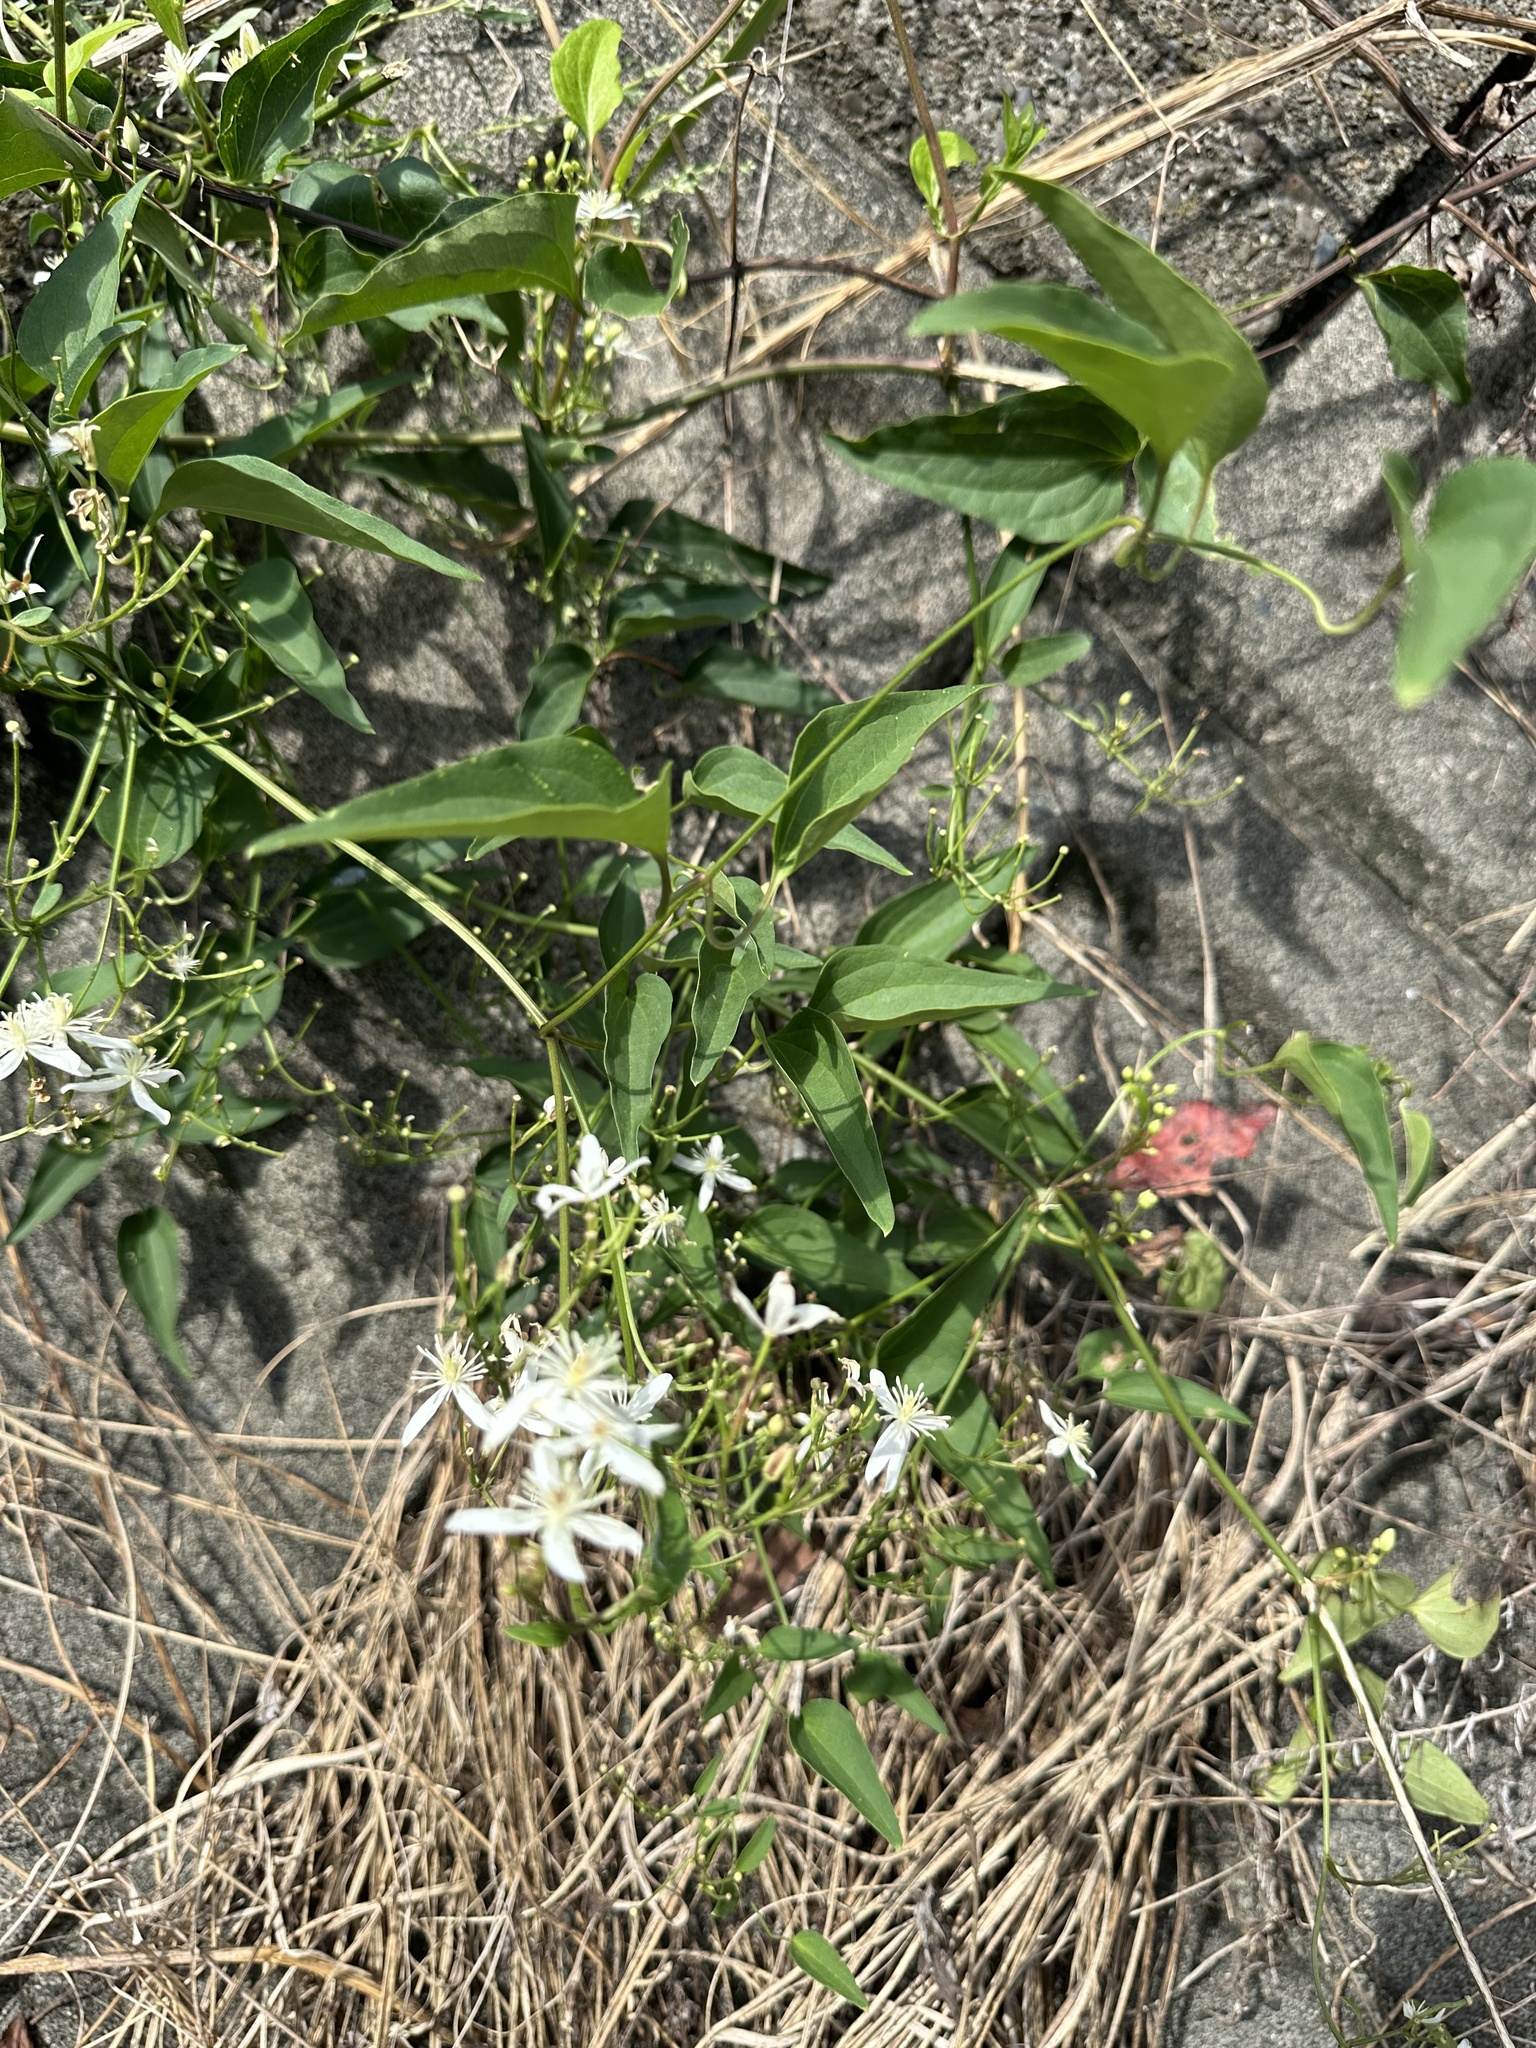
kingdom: Plantae
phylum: Tracheophyta
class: Magnoliopsida
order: Ranunculales
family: Ranunculaceae
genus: Clematis
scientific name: Clematis terniflora
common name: Sweet autumn clematis
